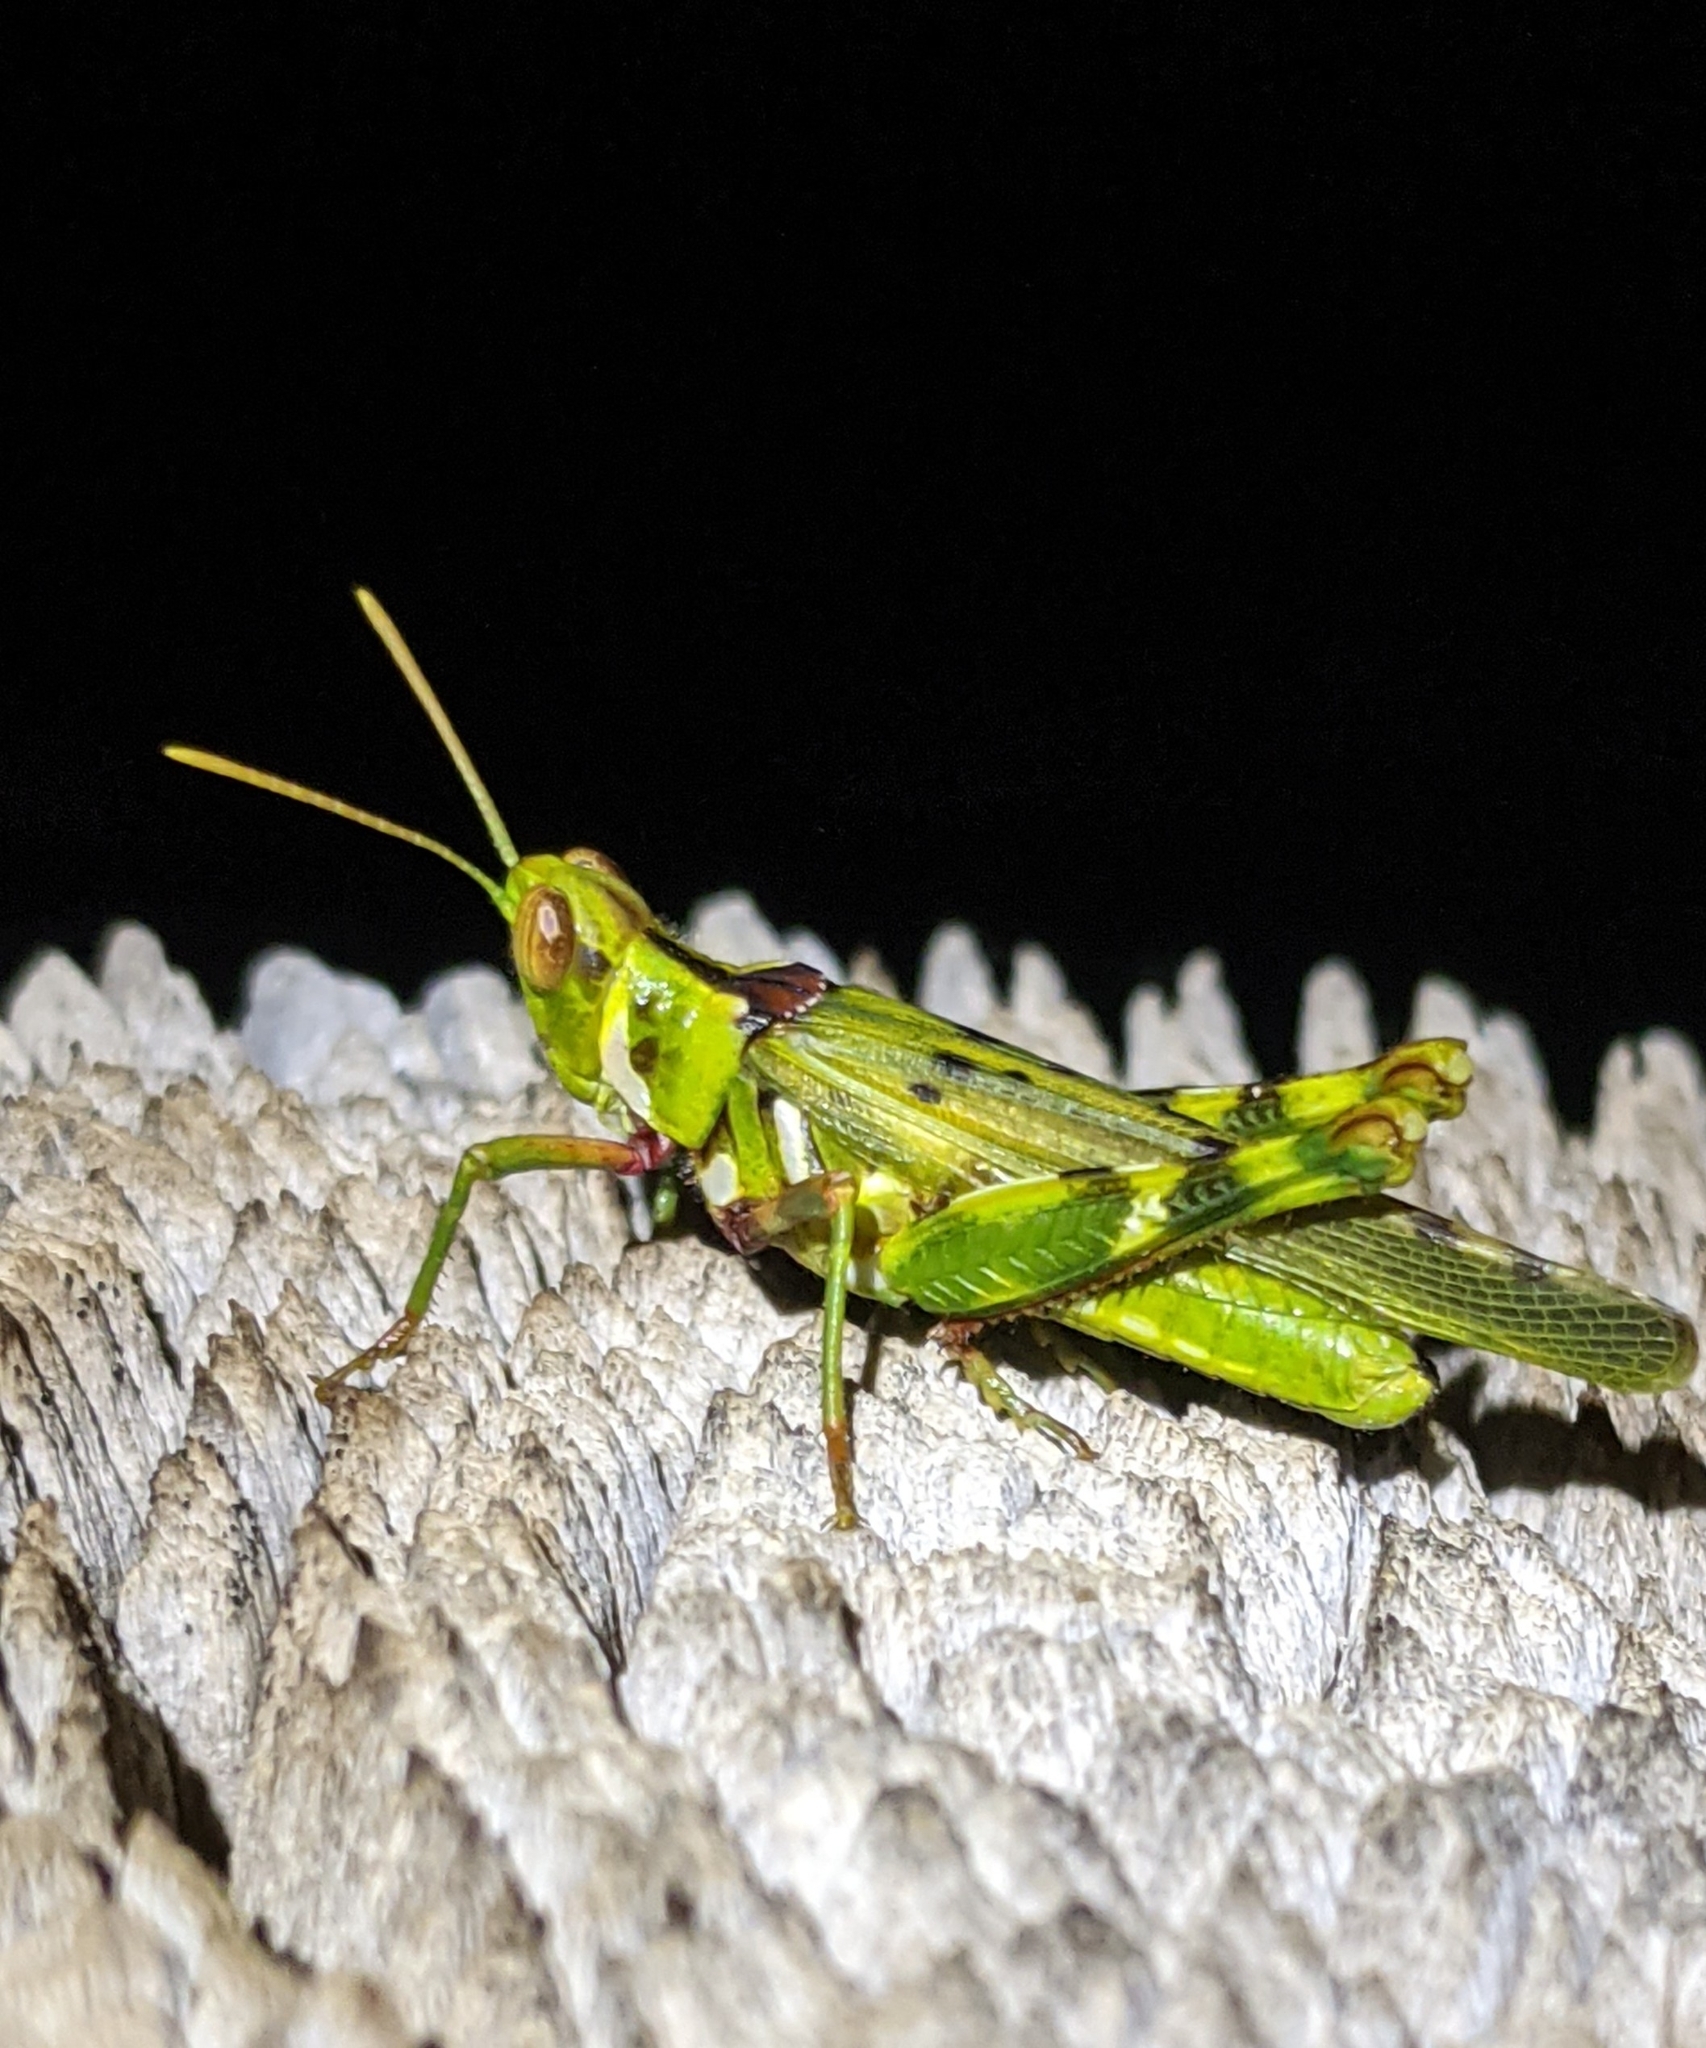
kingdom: Animalia
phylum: Arthropoda
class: Insecta
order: Orthoptera
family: Acrididae
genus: Bootettix
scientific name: Bootettix argentatus
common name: Creosote bush grasshopper
